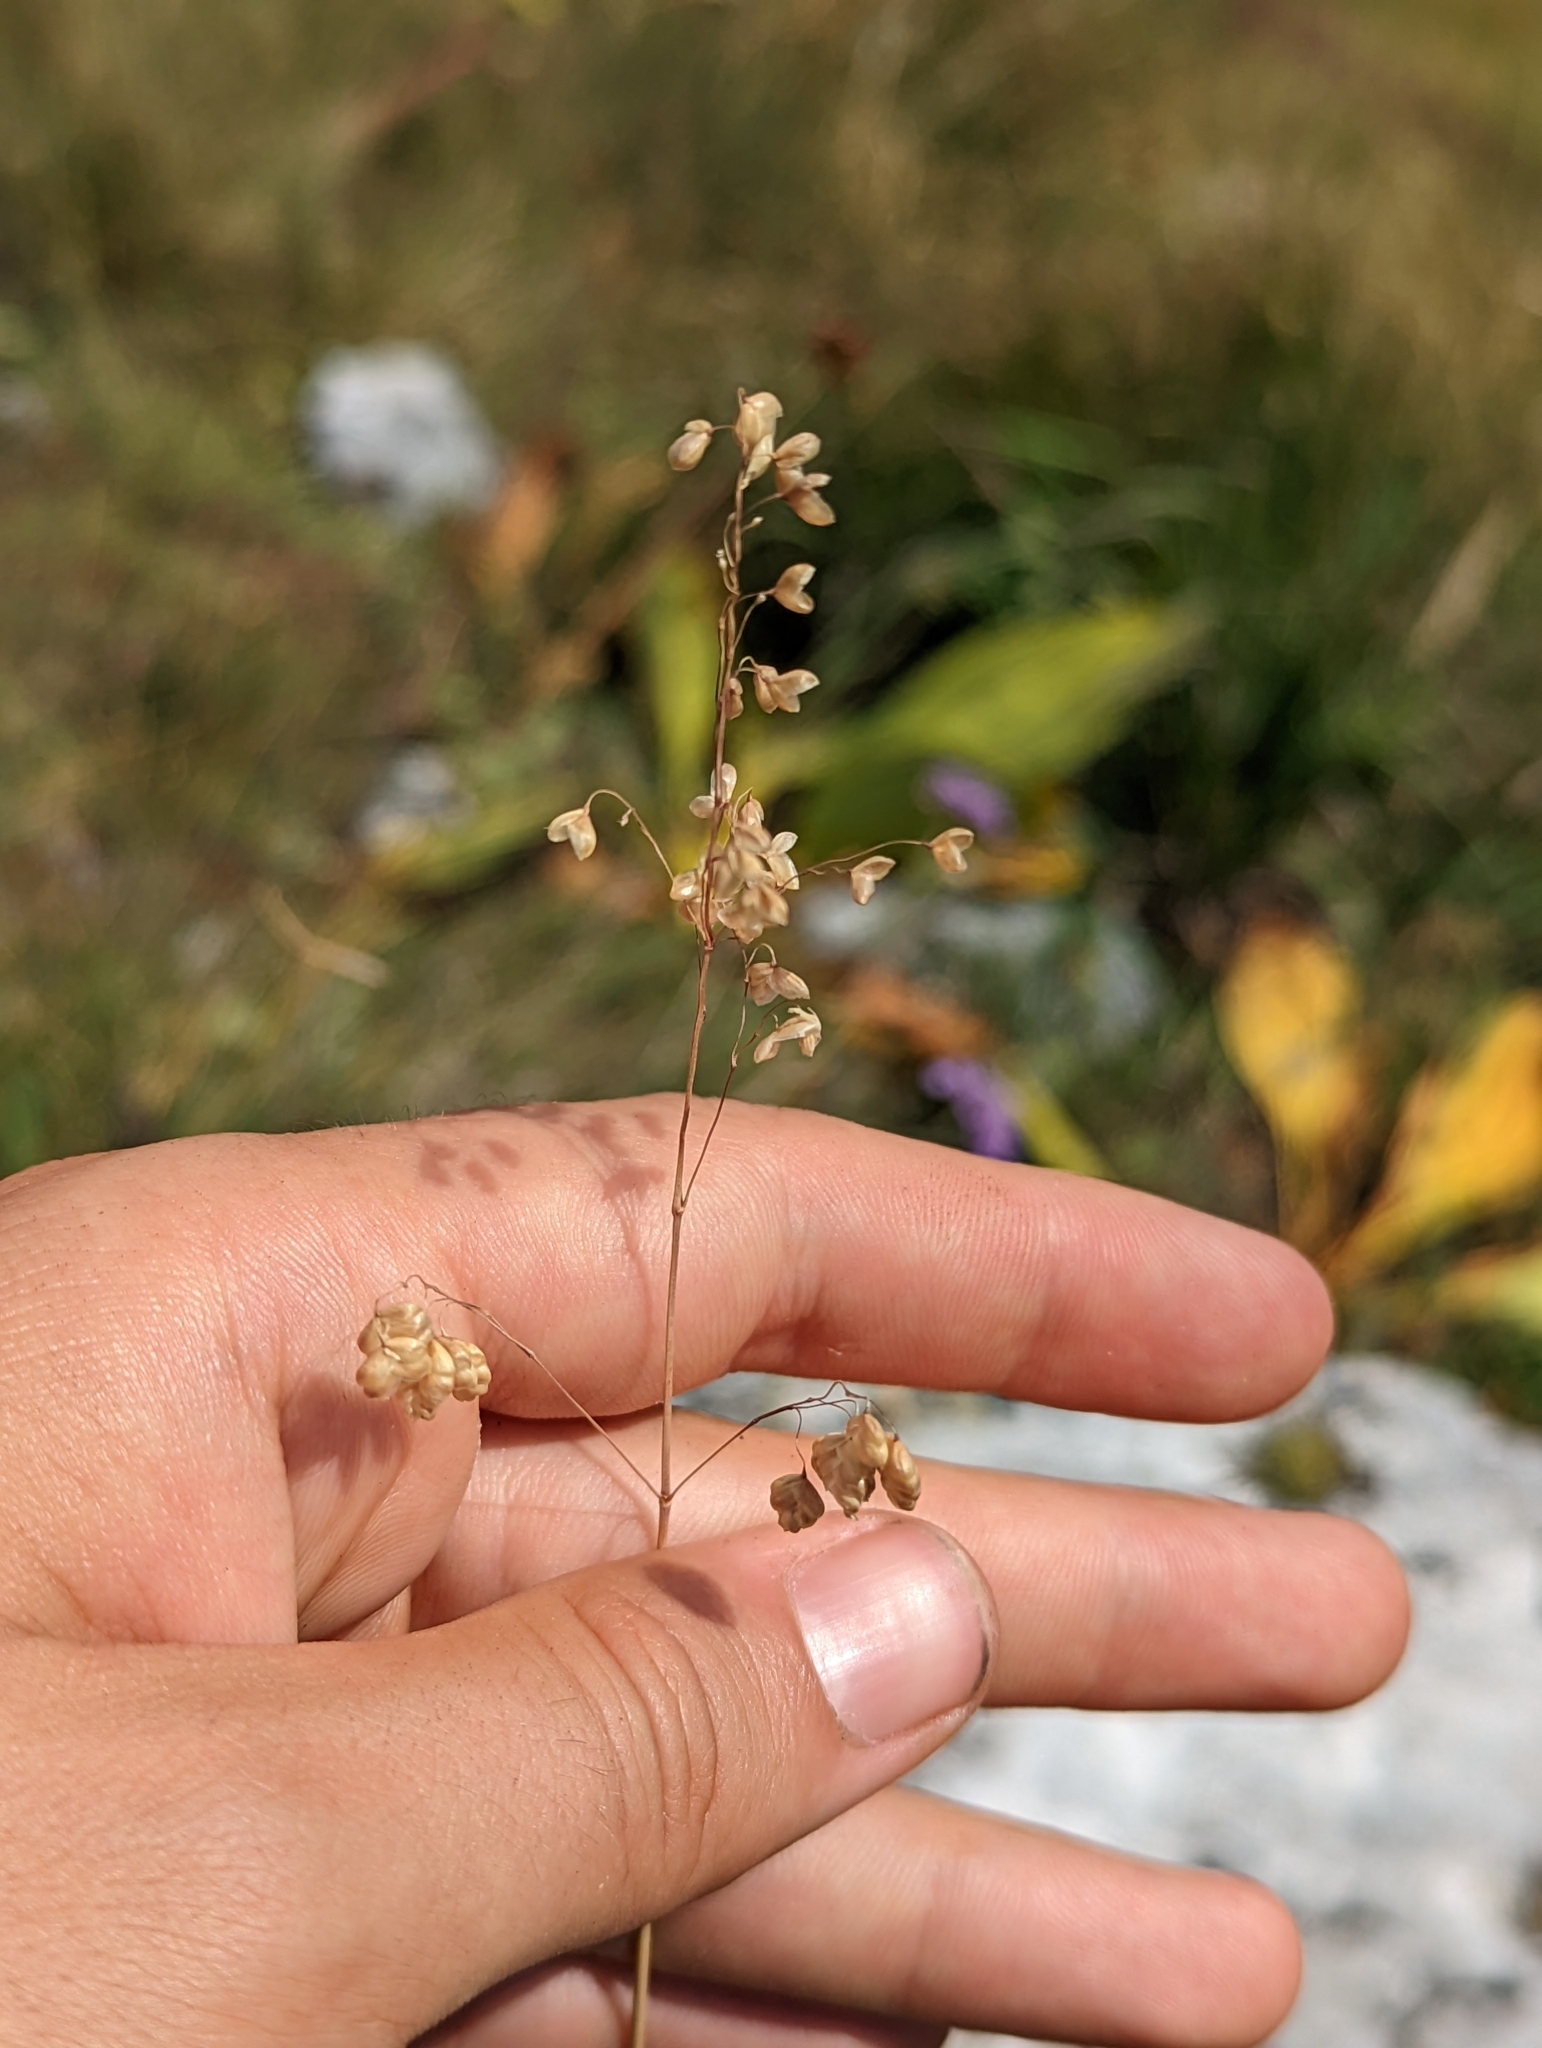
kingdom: Plantae
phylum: Tracheophyta
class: Liliopsida
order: Poales
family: Poaceae
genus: Briza
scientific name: Briza media
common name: Quaking grass
